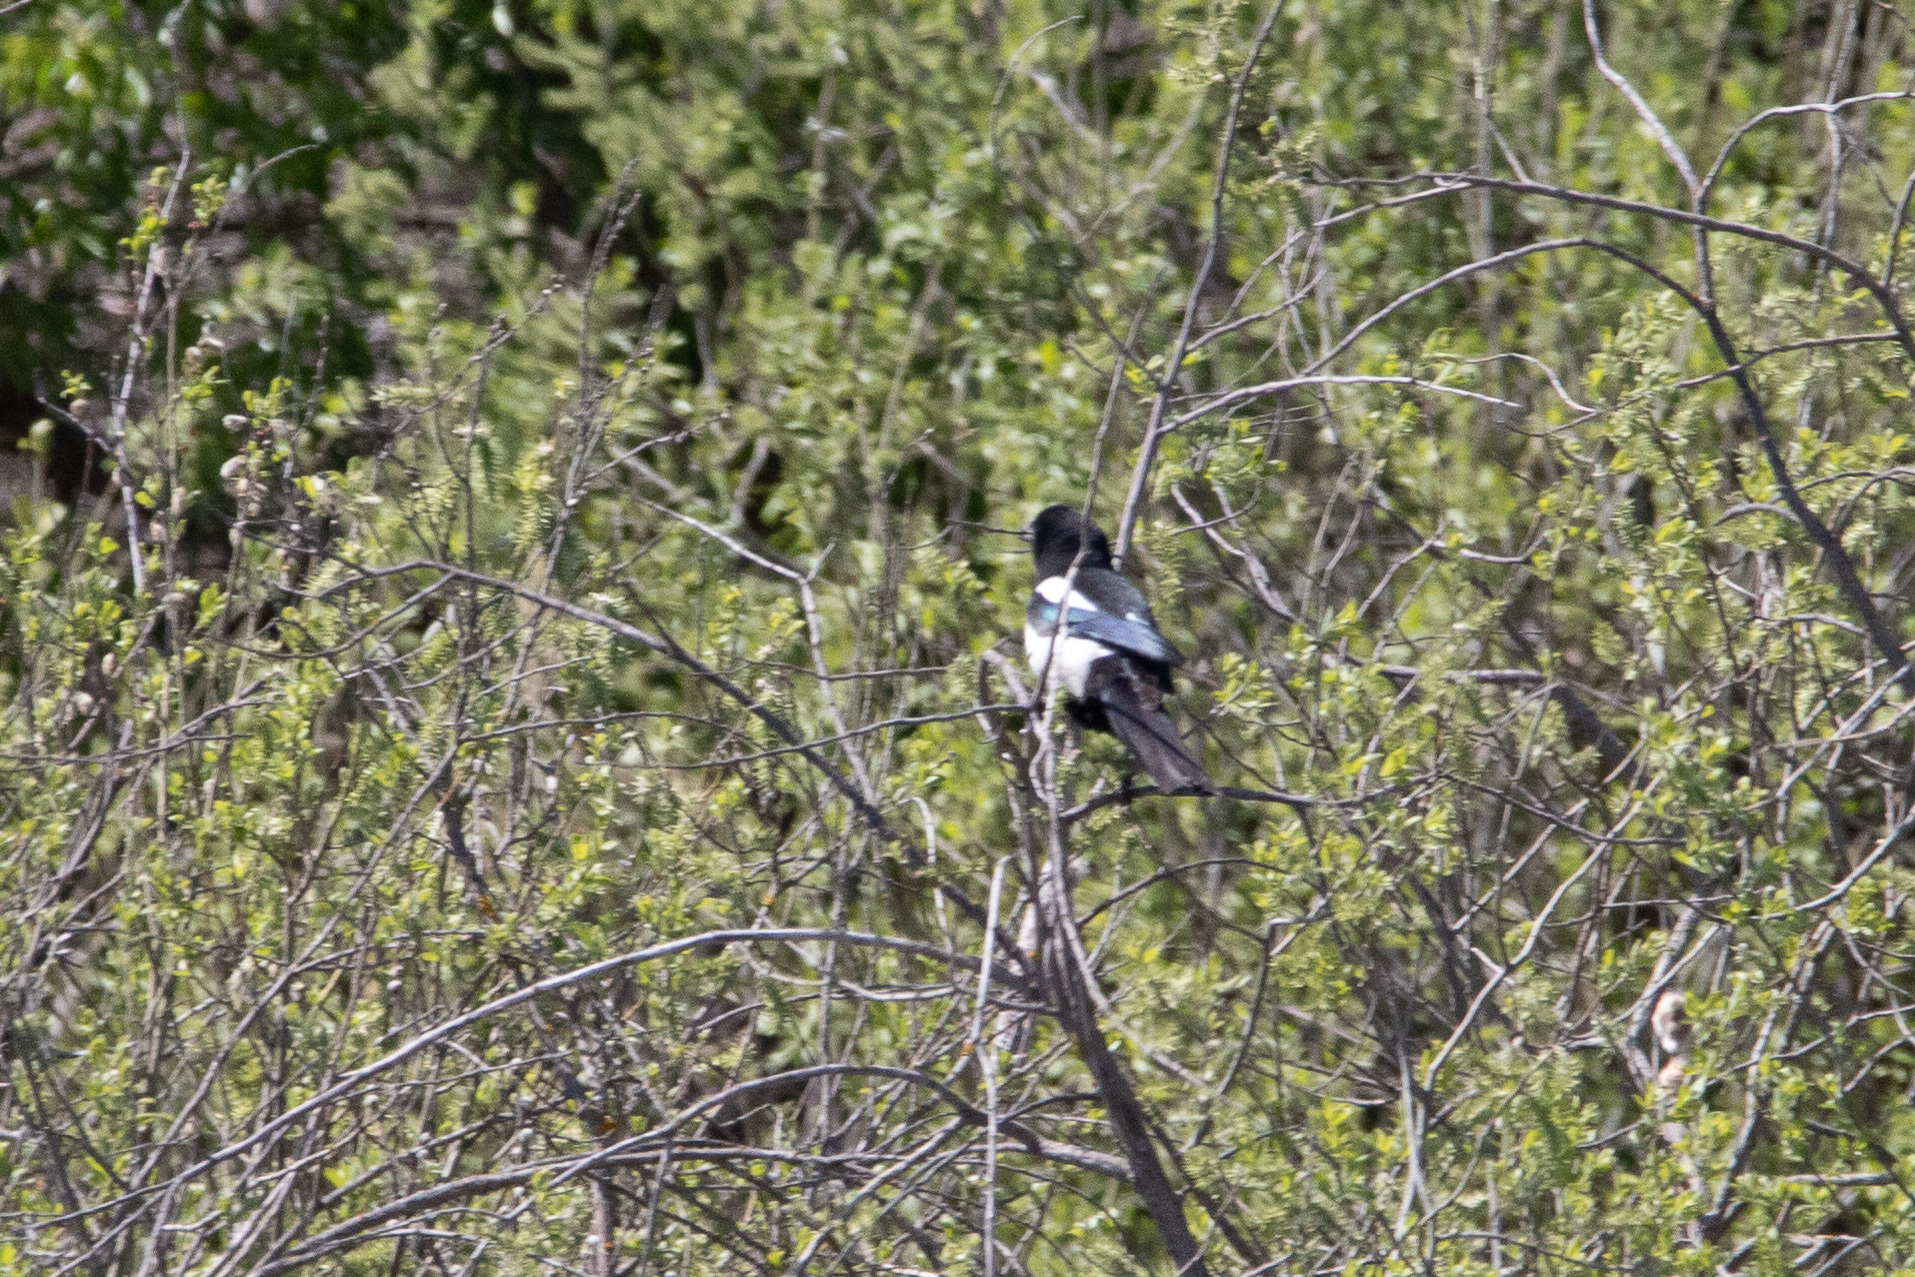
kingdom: Animalia
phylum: Chordata
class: Aves
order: Passeriformes
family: Corvidae
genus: Pica
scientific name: Pica pica
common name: Eurasian magpie
